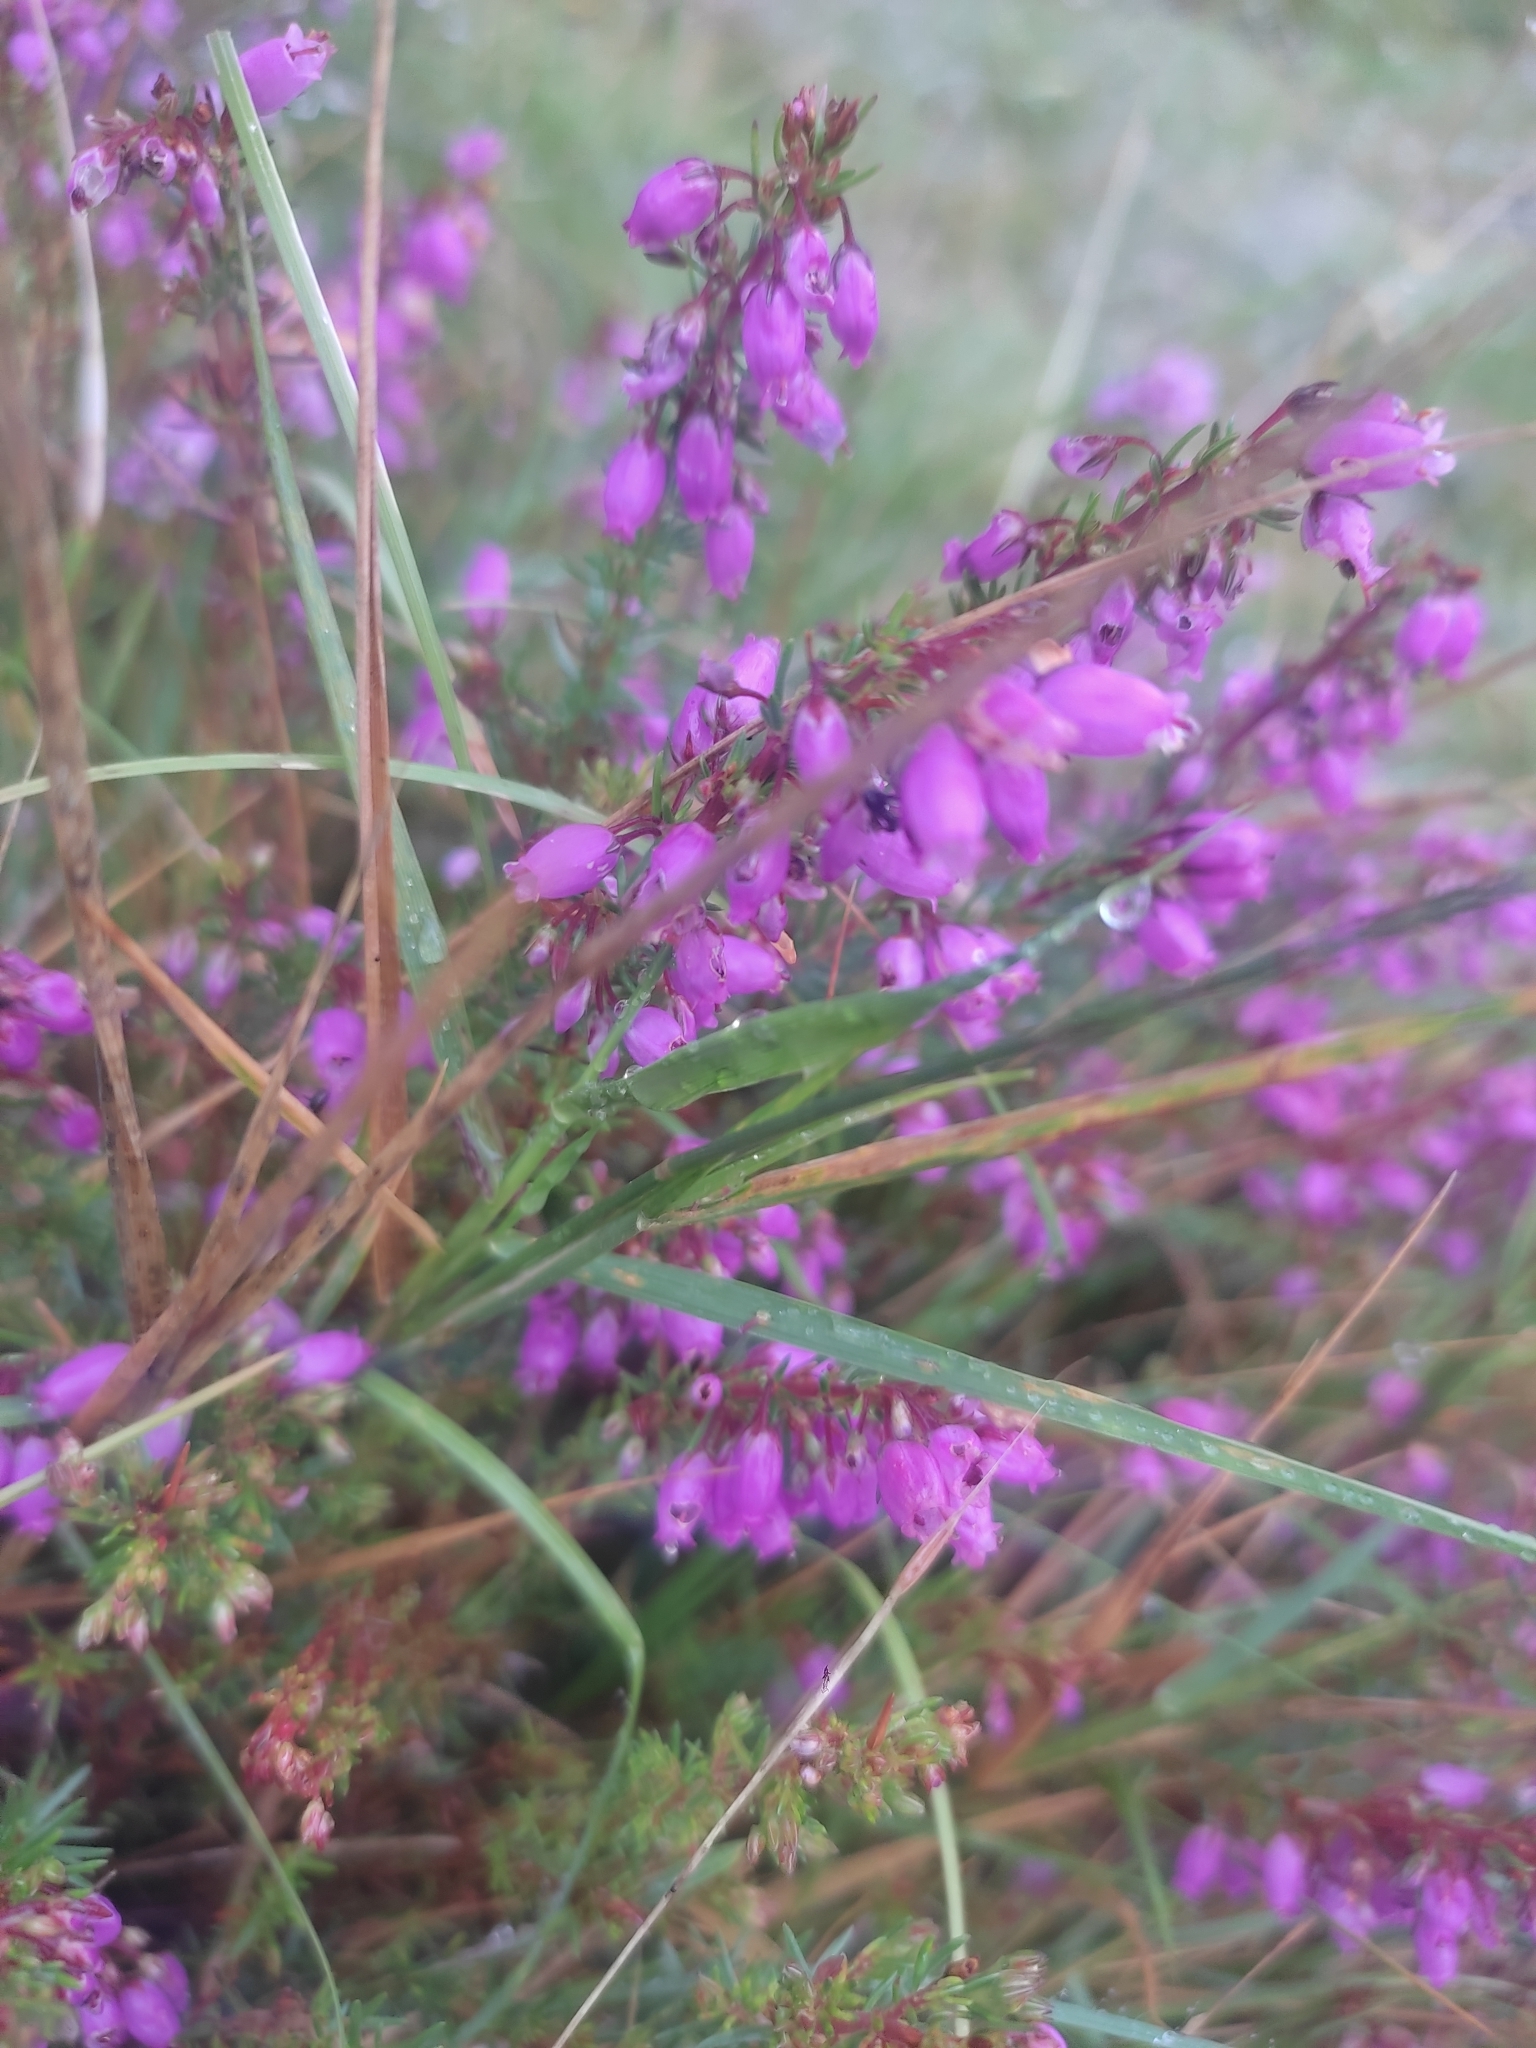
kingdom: Plantae
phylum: Tracheophyta
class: Magnoliopsida
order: Ericales
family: Ericaceae
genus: Erica
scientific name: Erica cinerea
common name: Bell heather
